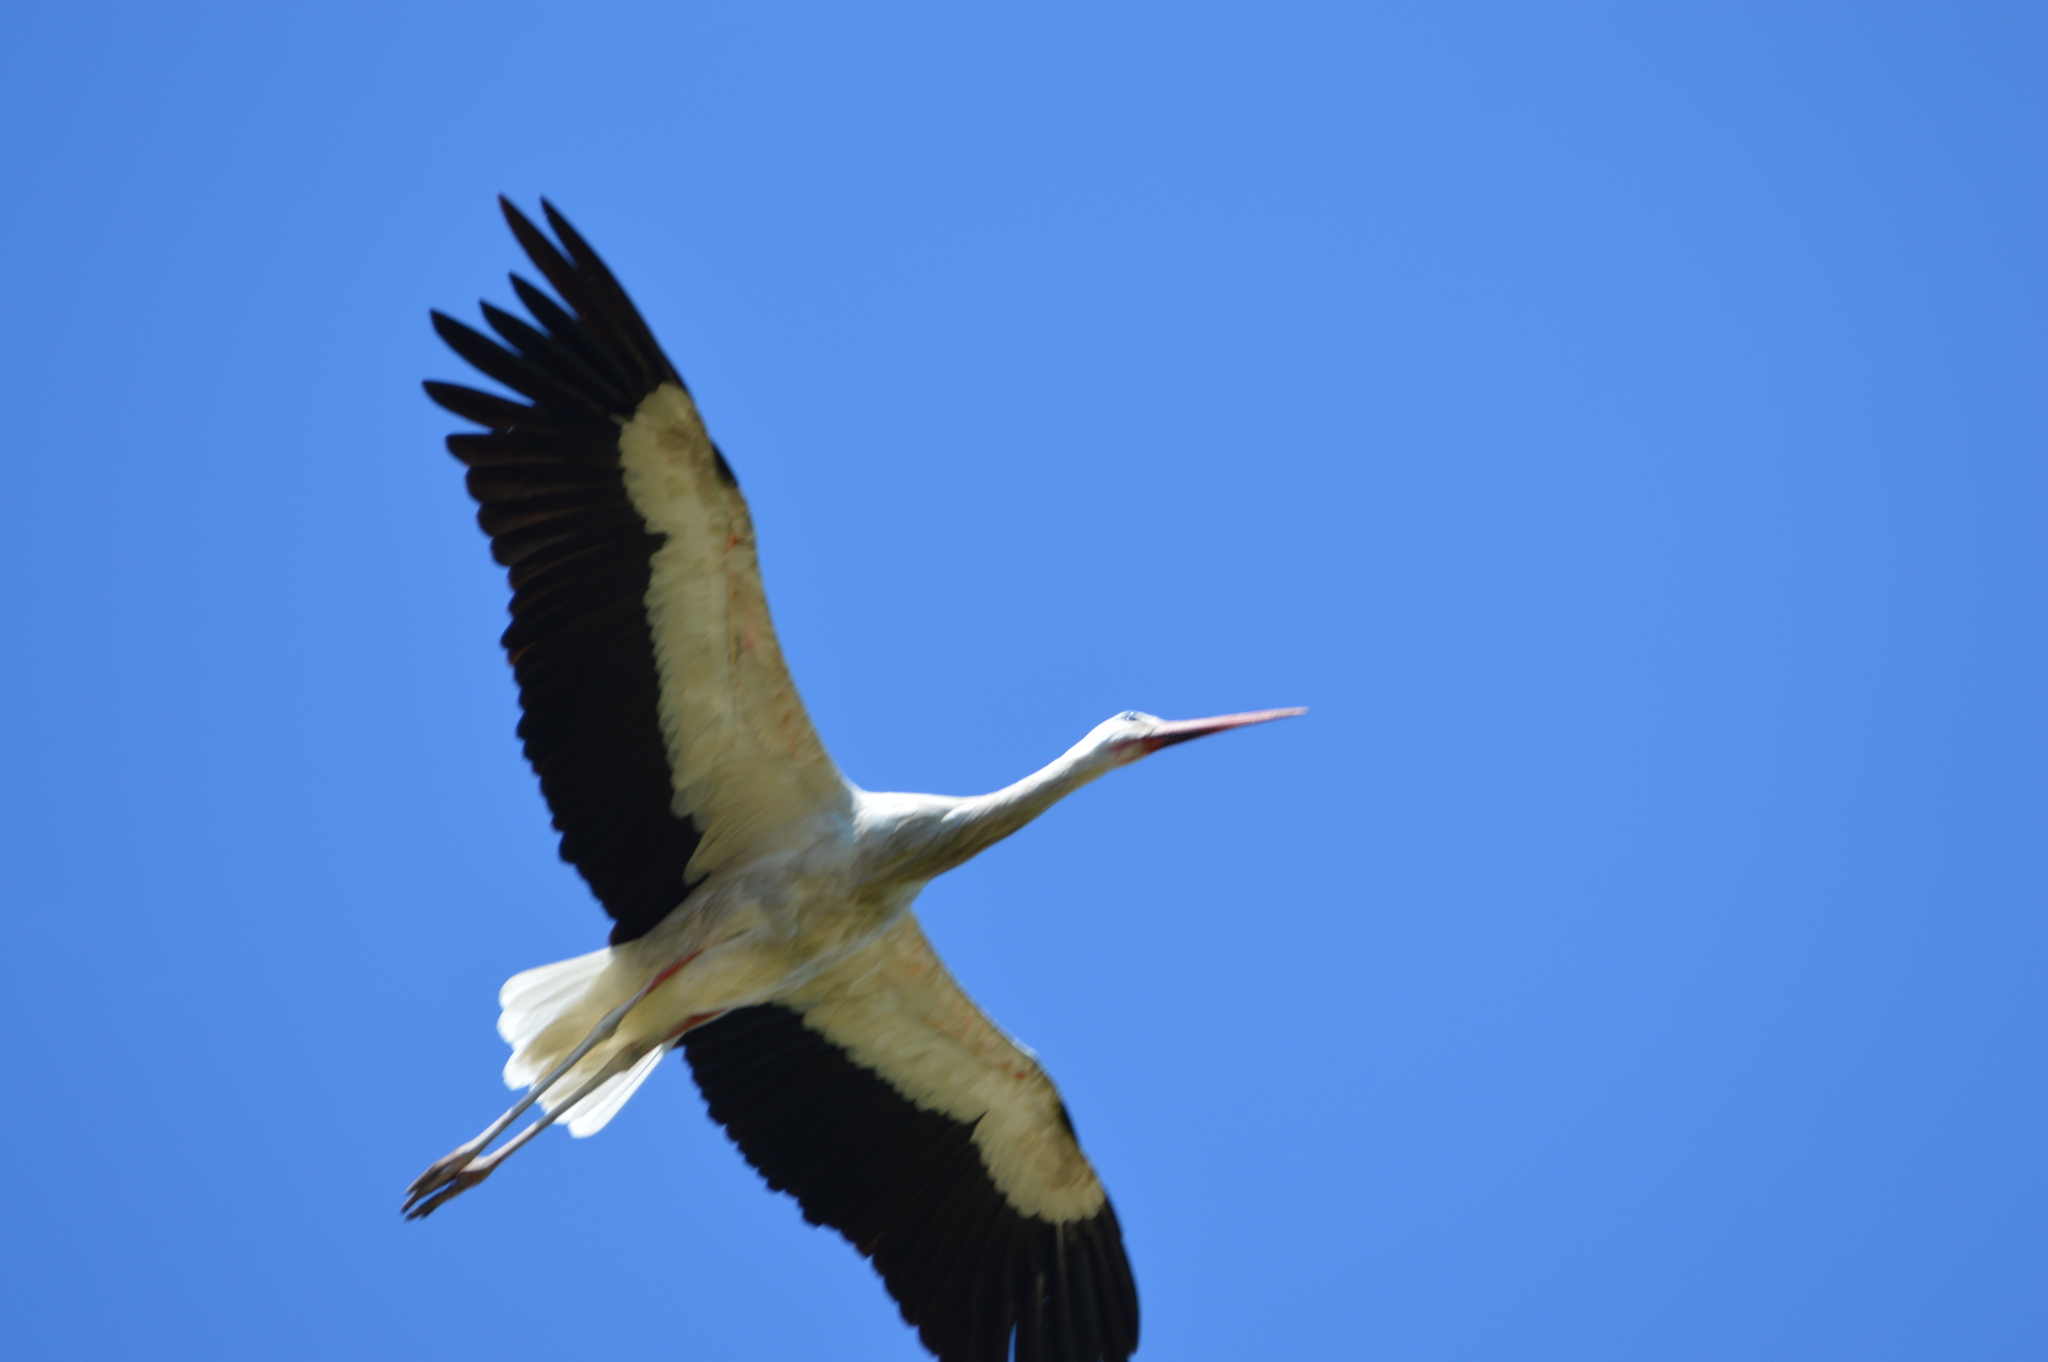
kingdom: Animalia
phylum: Chordata
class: Aves
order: Ciconiiformes
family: Ciconiidae
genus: Ciconia
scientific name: Ciconia ciconia
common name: White stork
